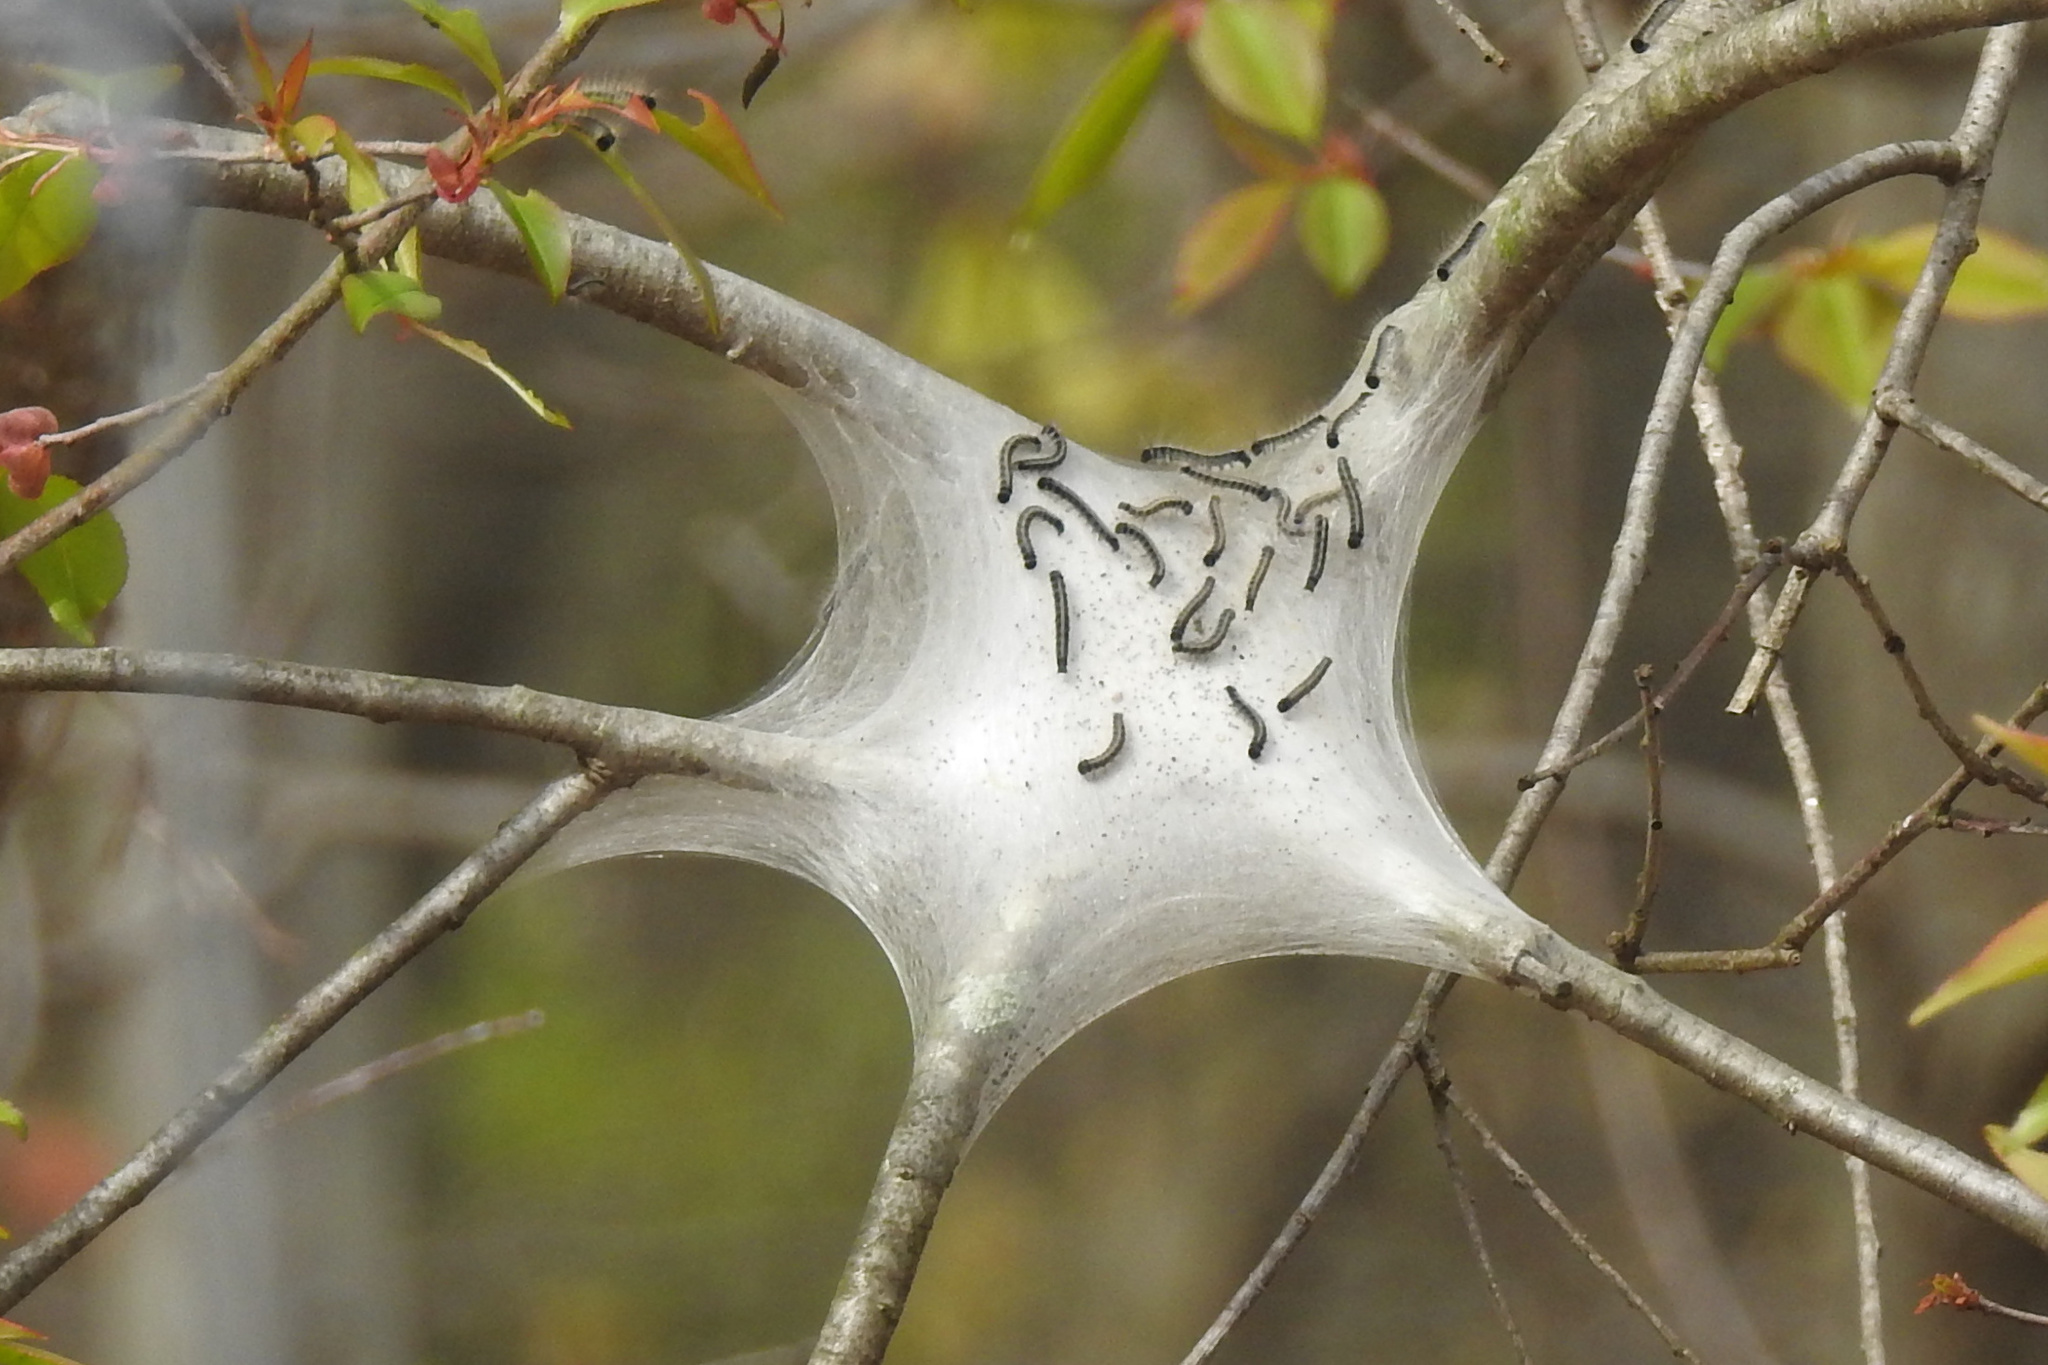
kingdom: Animalia
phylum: Arthropoda
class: Insecta
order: Lepidoptera
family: Lasiocampidae
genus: Malacosoma
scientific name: Malacosoma americana
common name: Eastern tent caterpillar moth
